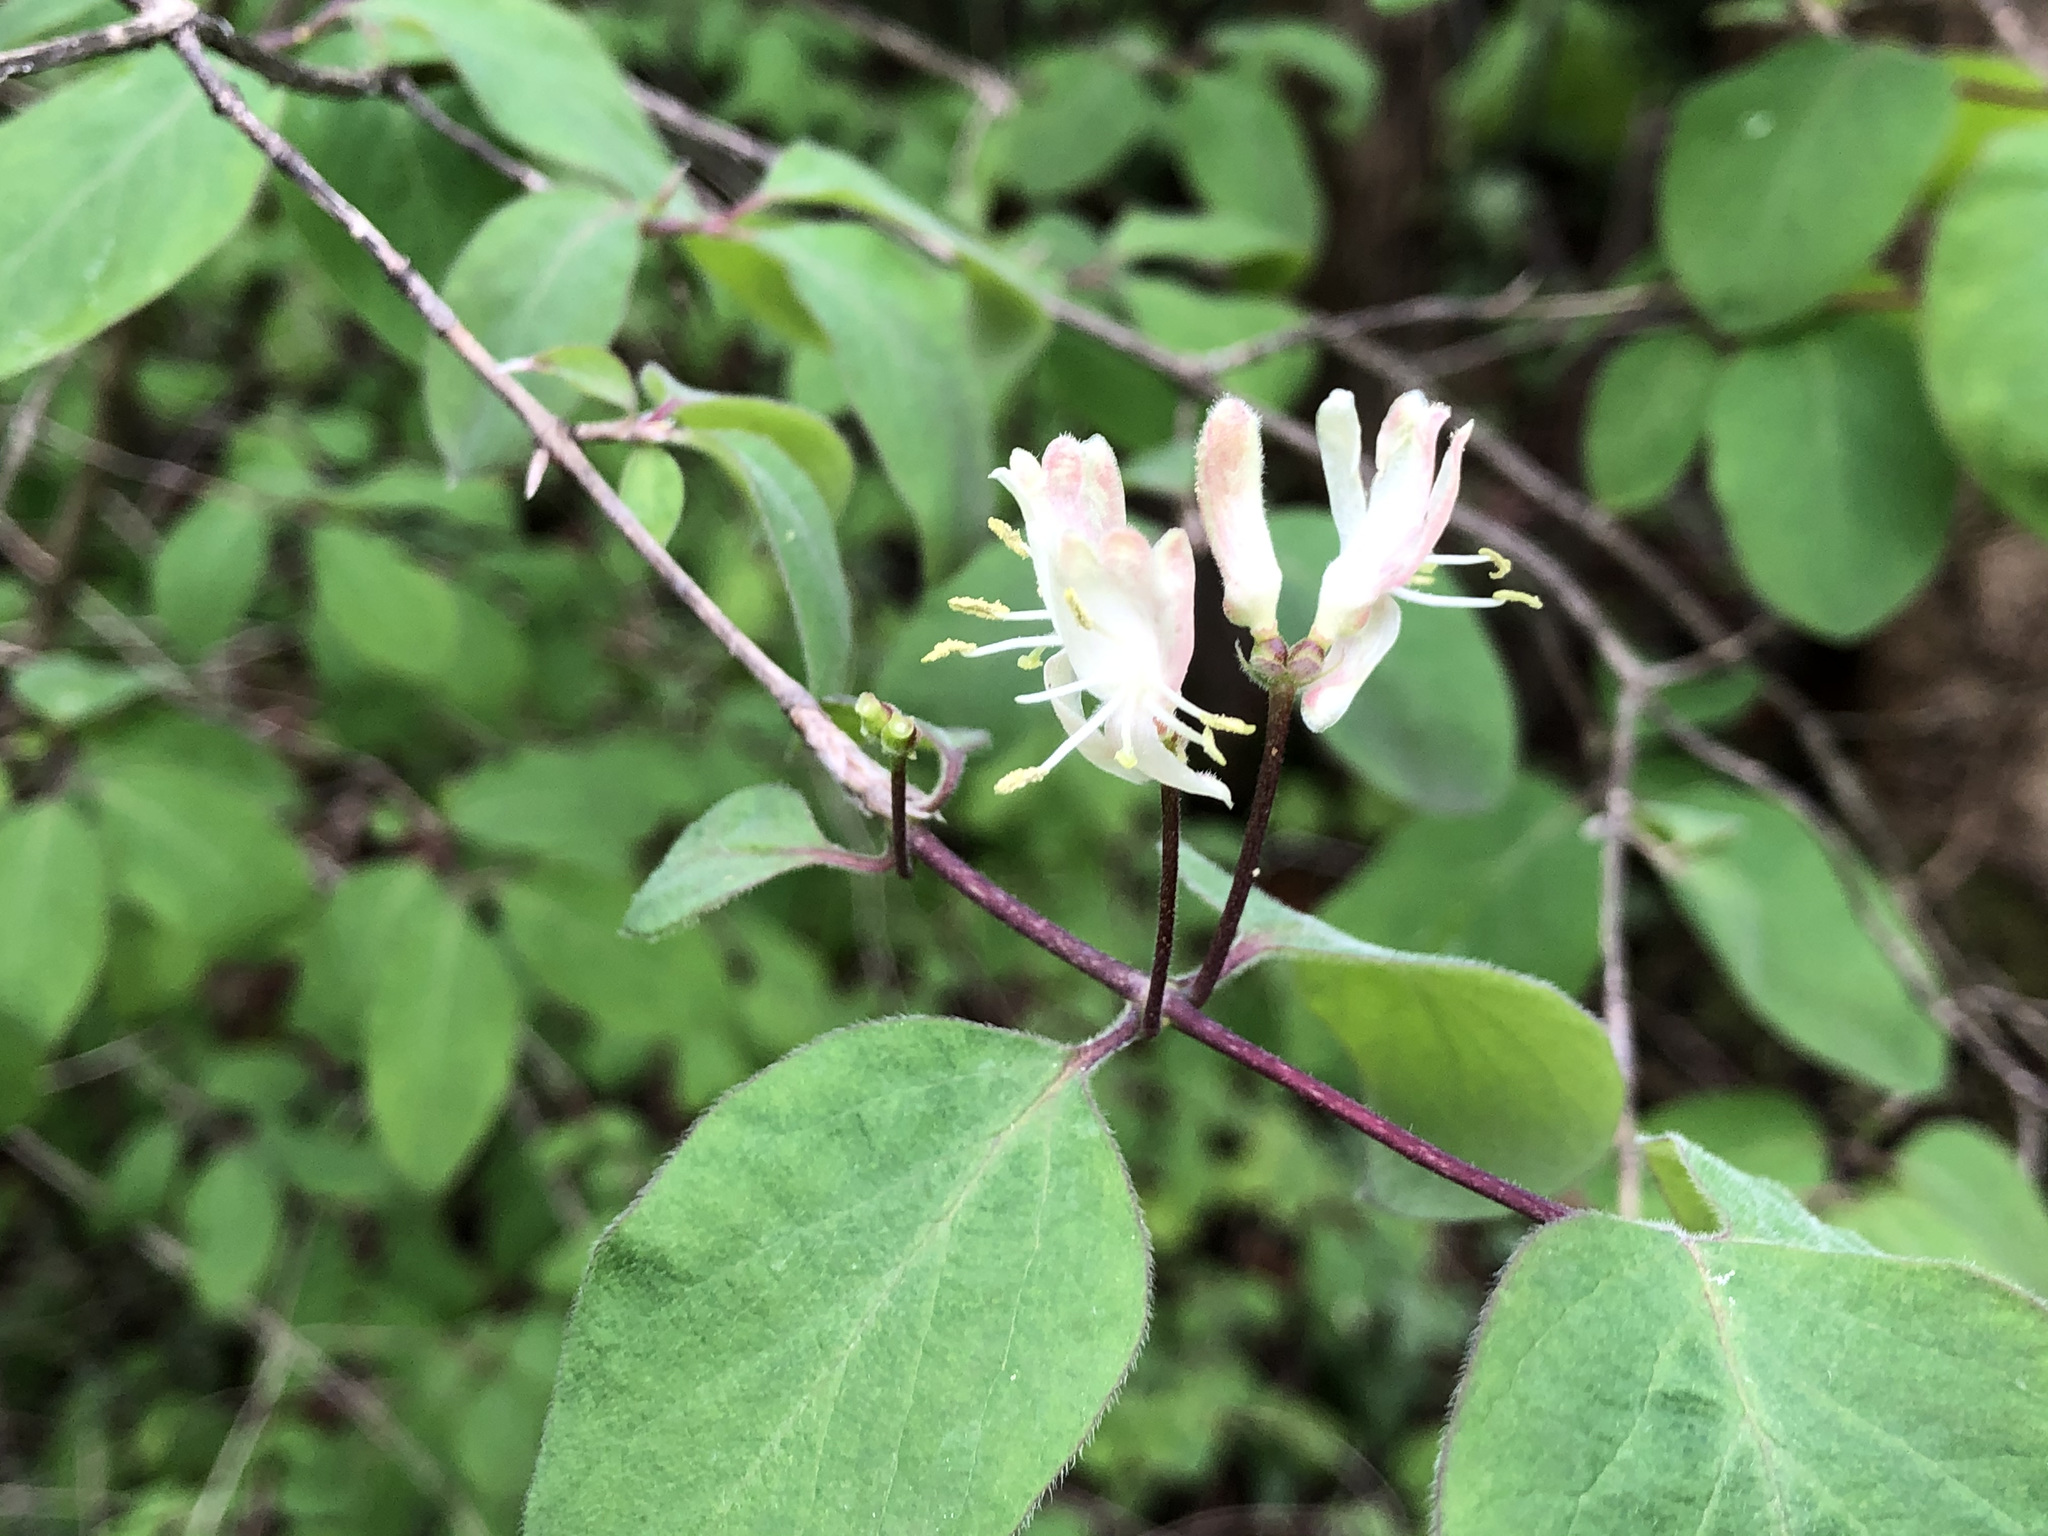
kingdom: Plantae
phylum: Tracheophyta
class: Magnoliopsida
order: Dipsacales
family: Caprifoliaceae
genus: Lonicera
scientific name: Lonicera xylosteum
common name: Fly honeysuckle
